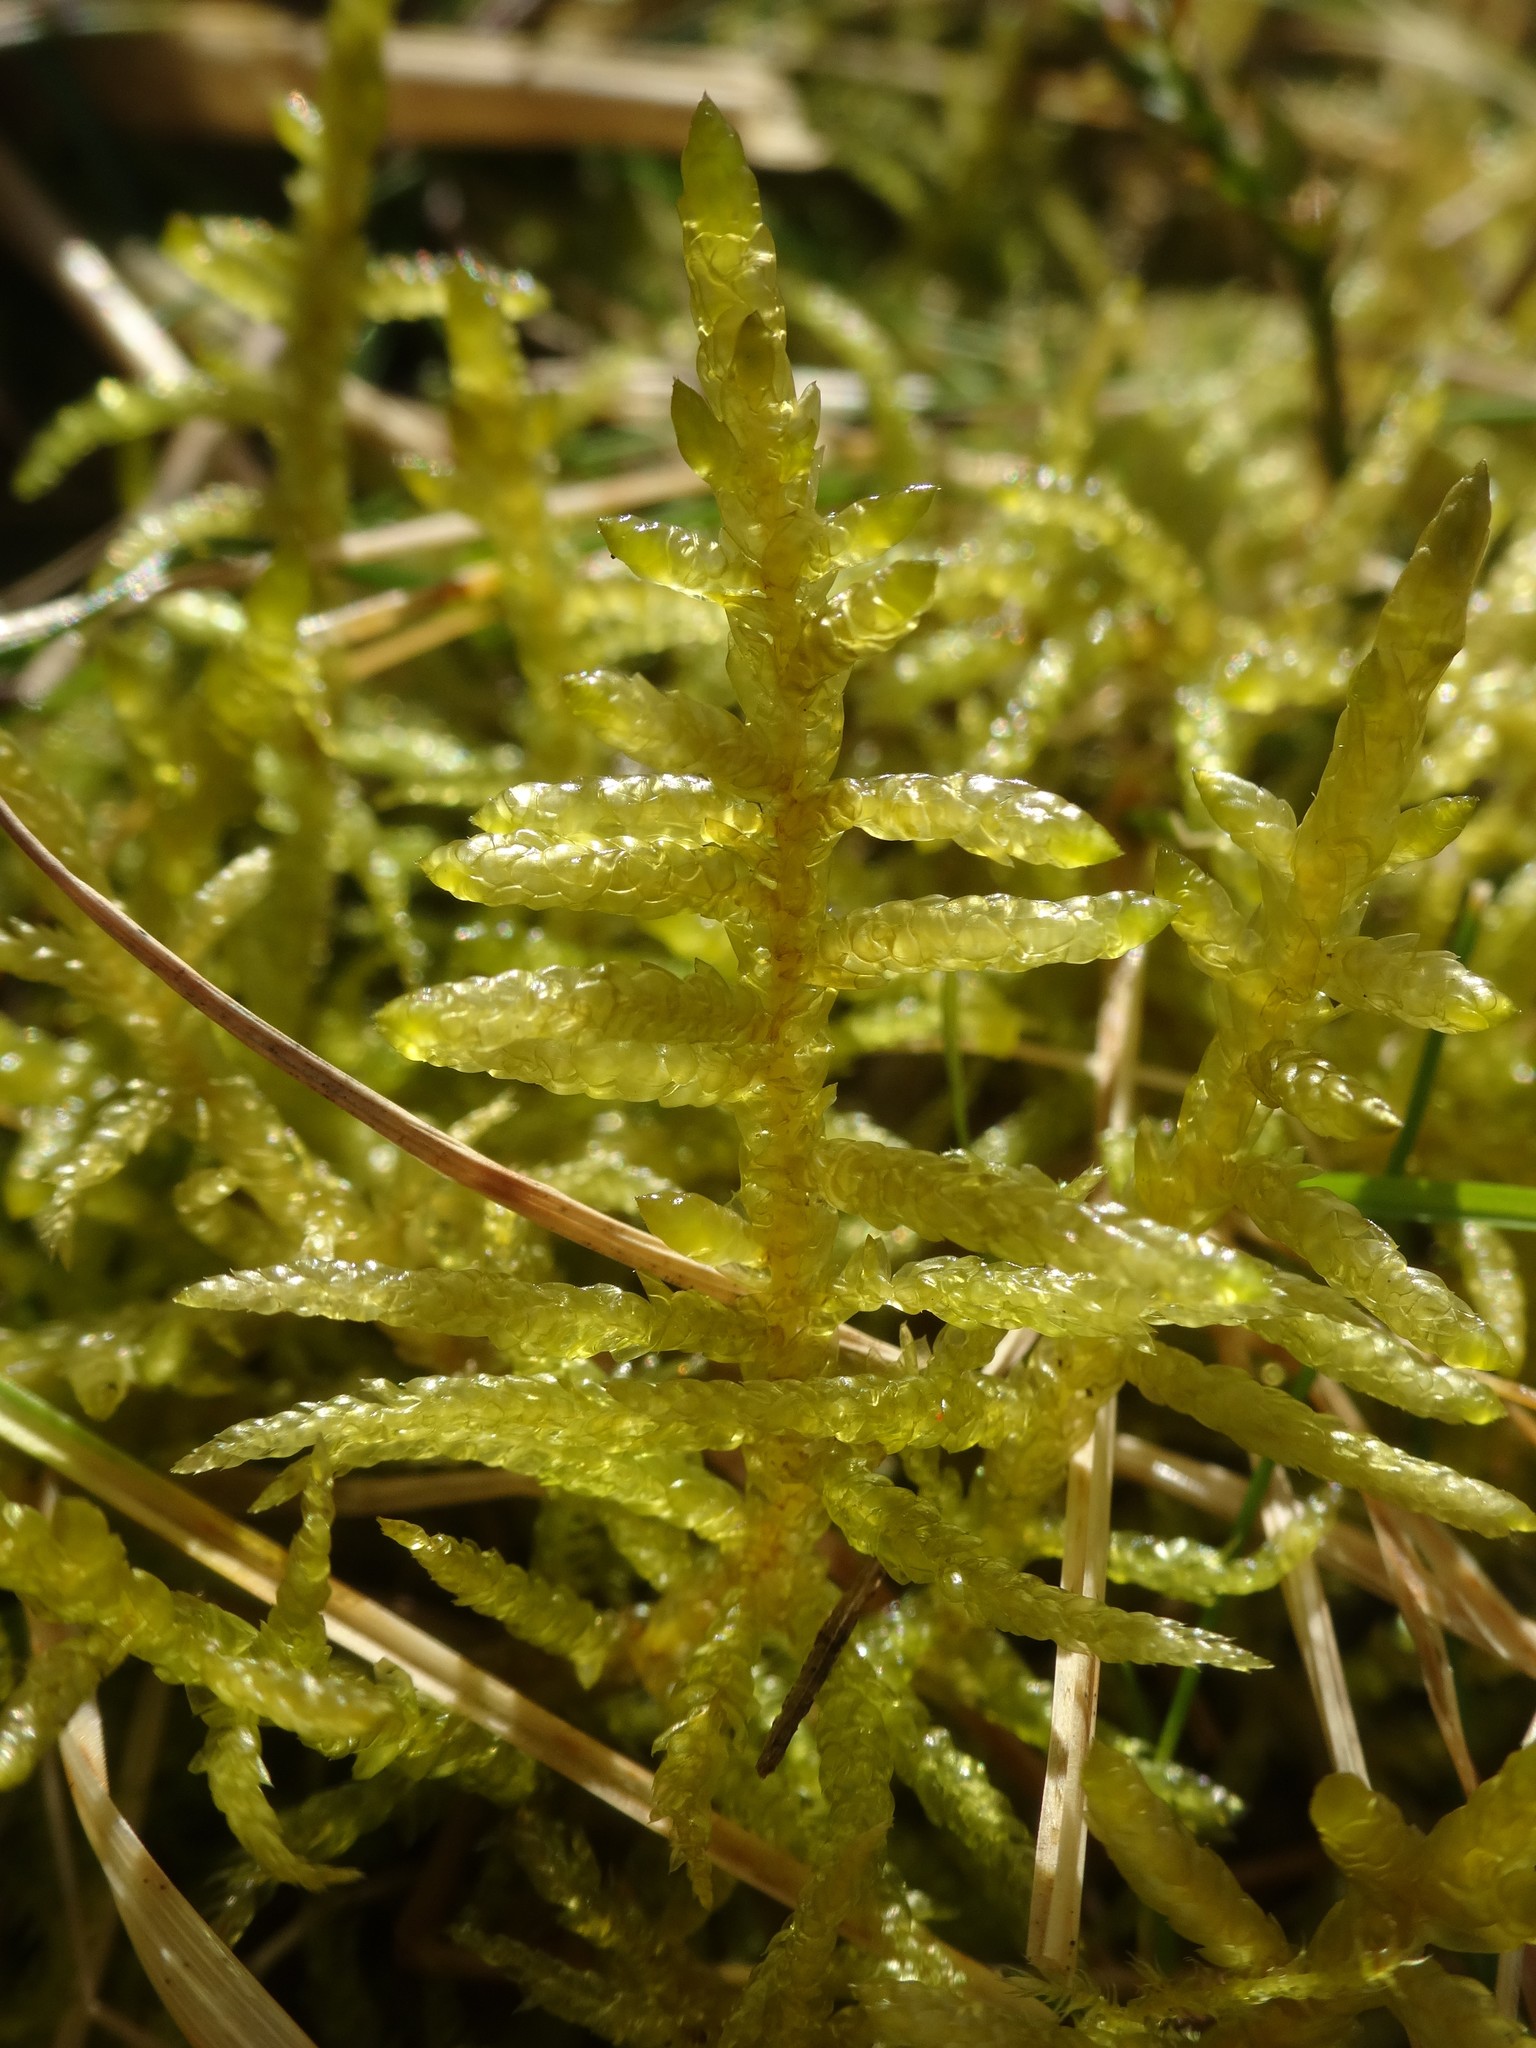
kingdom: Plantae
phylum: Bryophyta
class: Bryopsida
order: Hypnales
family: Brachytheciaceae
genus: Pseudoscleropodium
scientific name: Pseudoscleropodium purum
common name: Neat feather-moss
